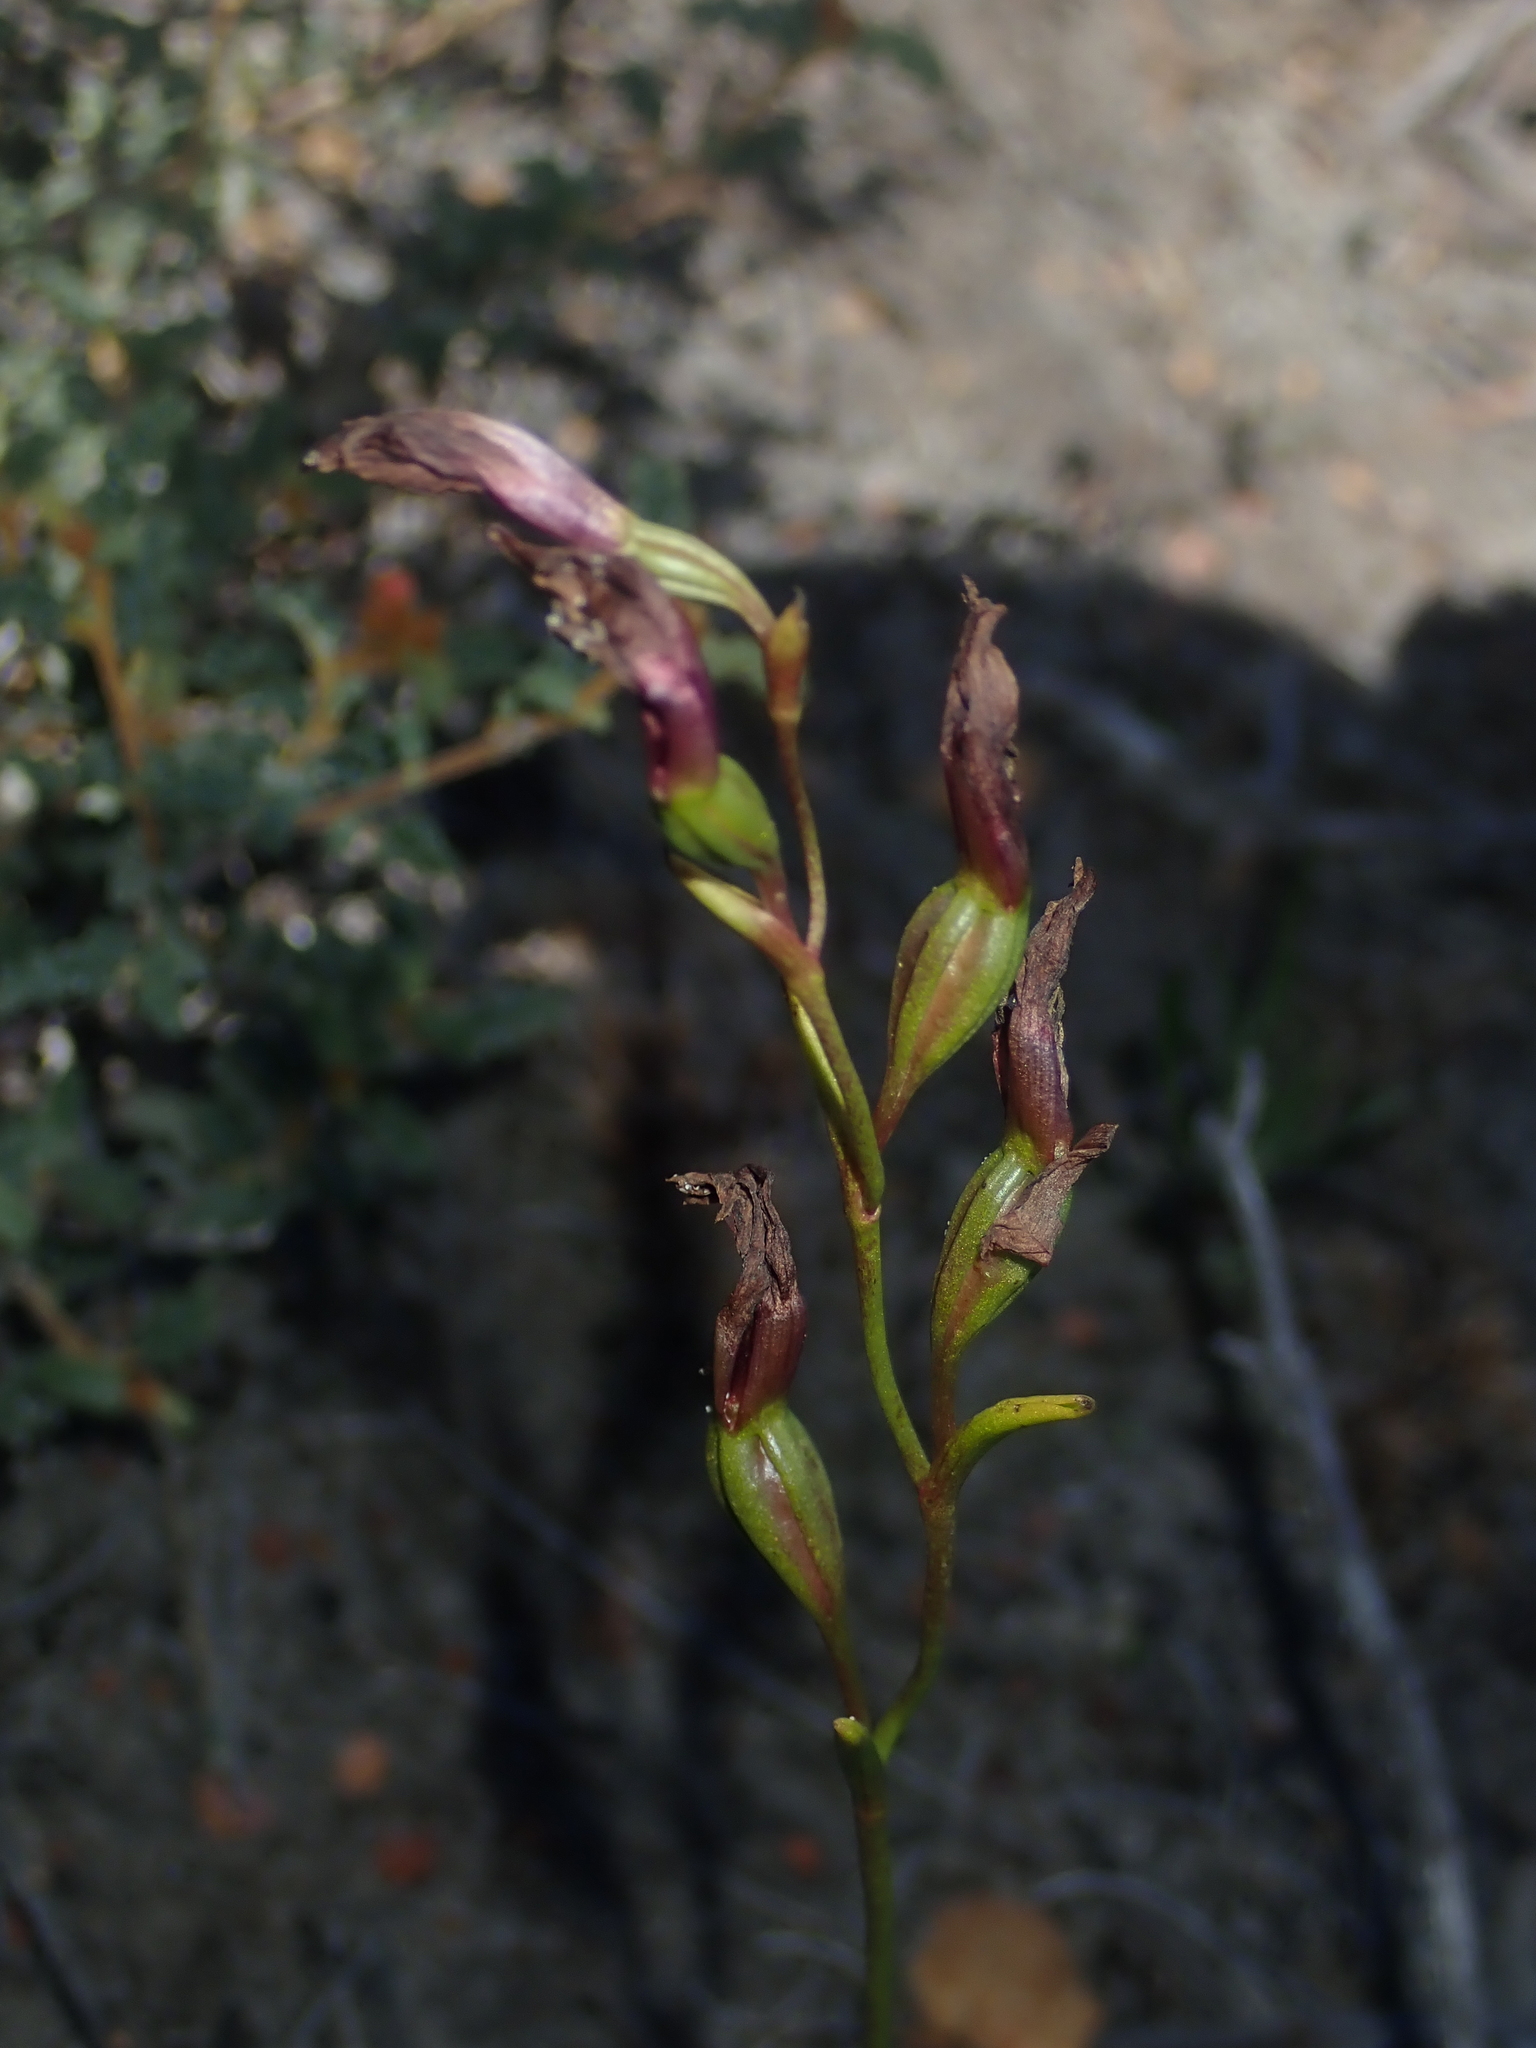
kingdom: Plantae
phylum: Tracheophyta
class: Liliopsida
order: Asparagales
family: Orchidaceae
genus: Thelymitra
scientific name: Thelymitra apiculata
